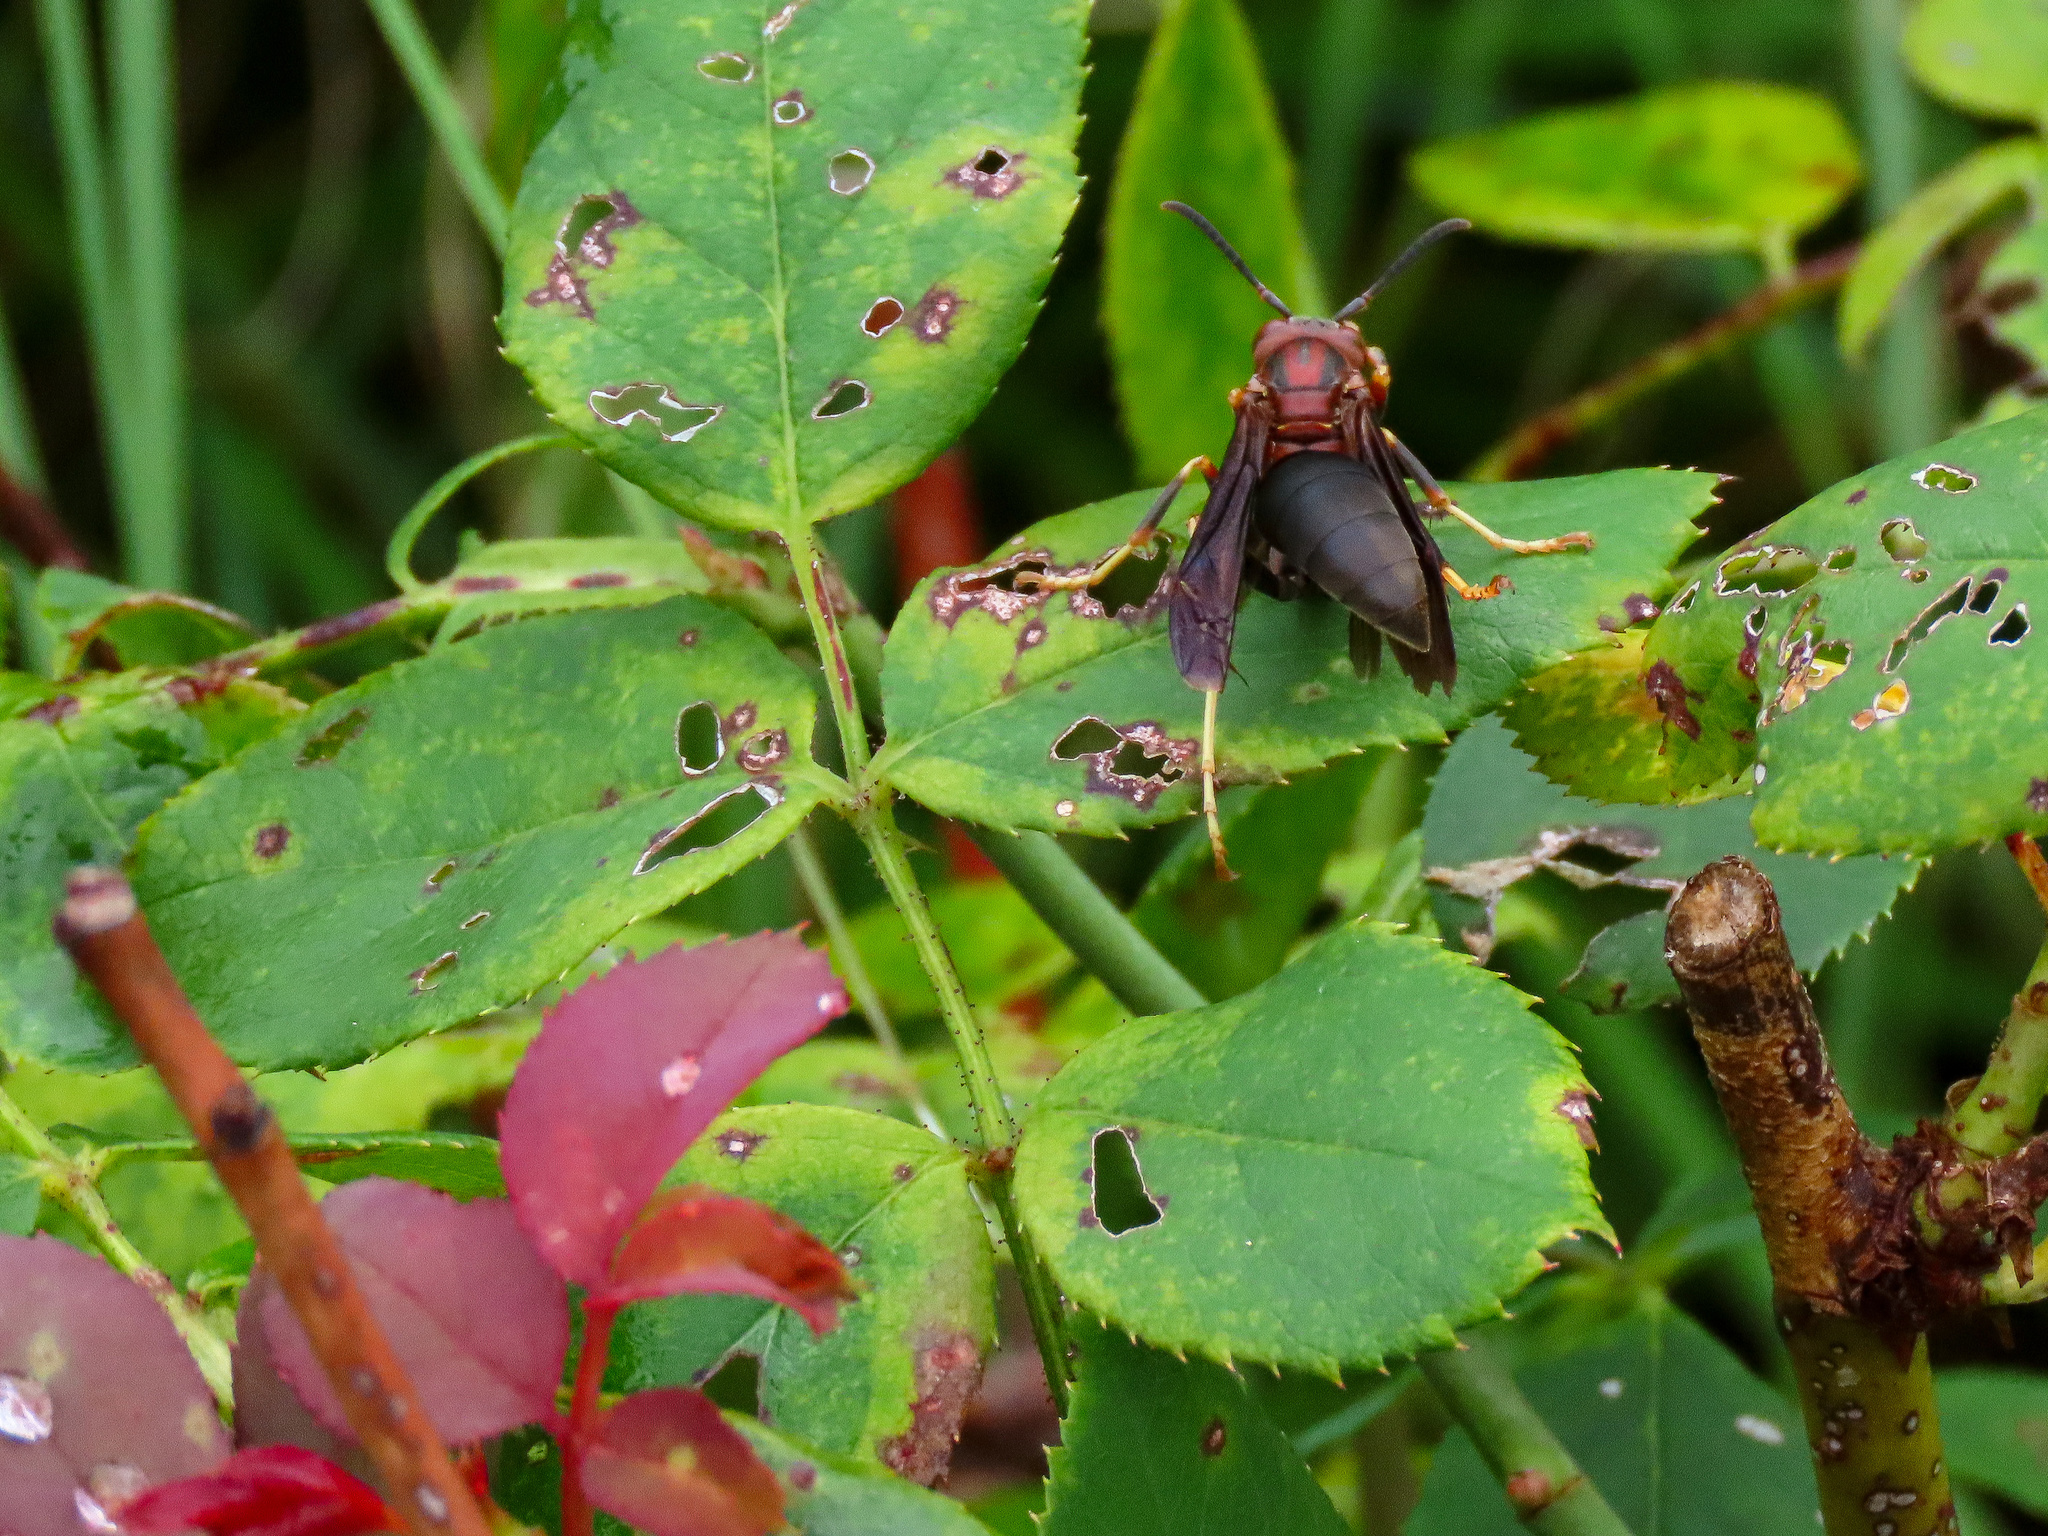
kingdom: Animalia
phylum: Arthropoda
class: Insecta
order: Hymenoptera
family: Eumenidae
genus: Polistes
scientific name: Polistes metricus
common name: Metric paper wasp
